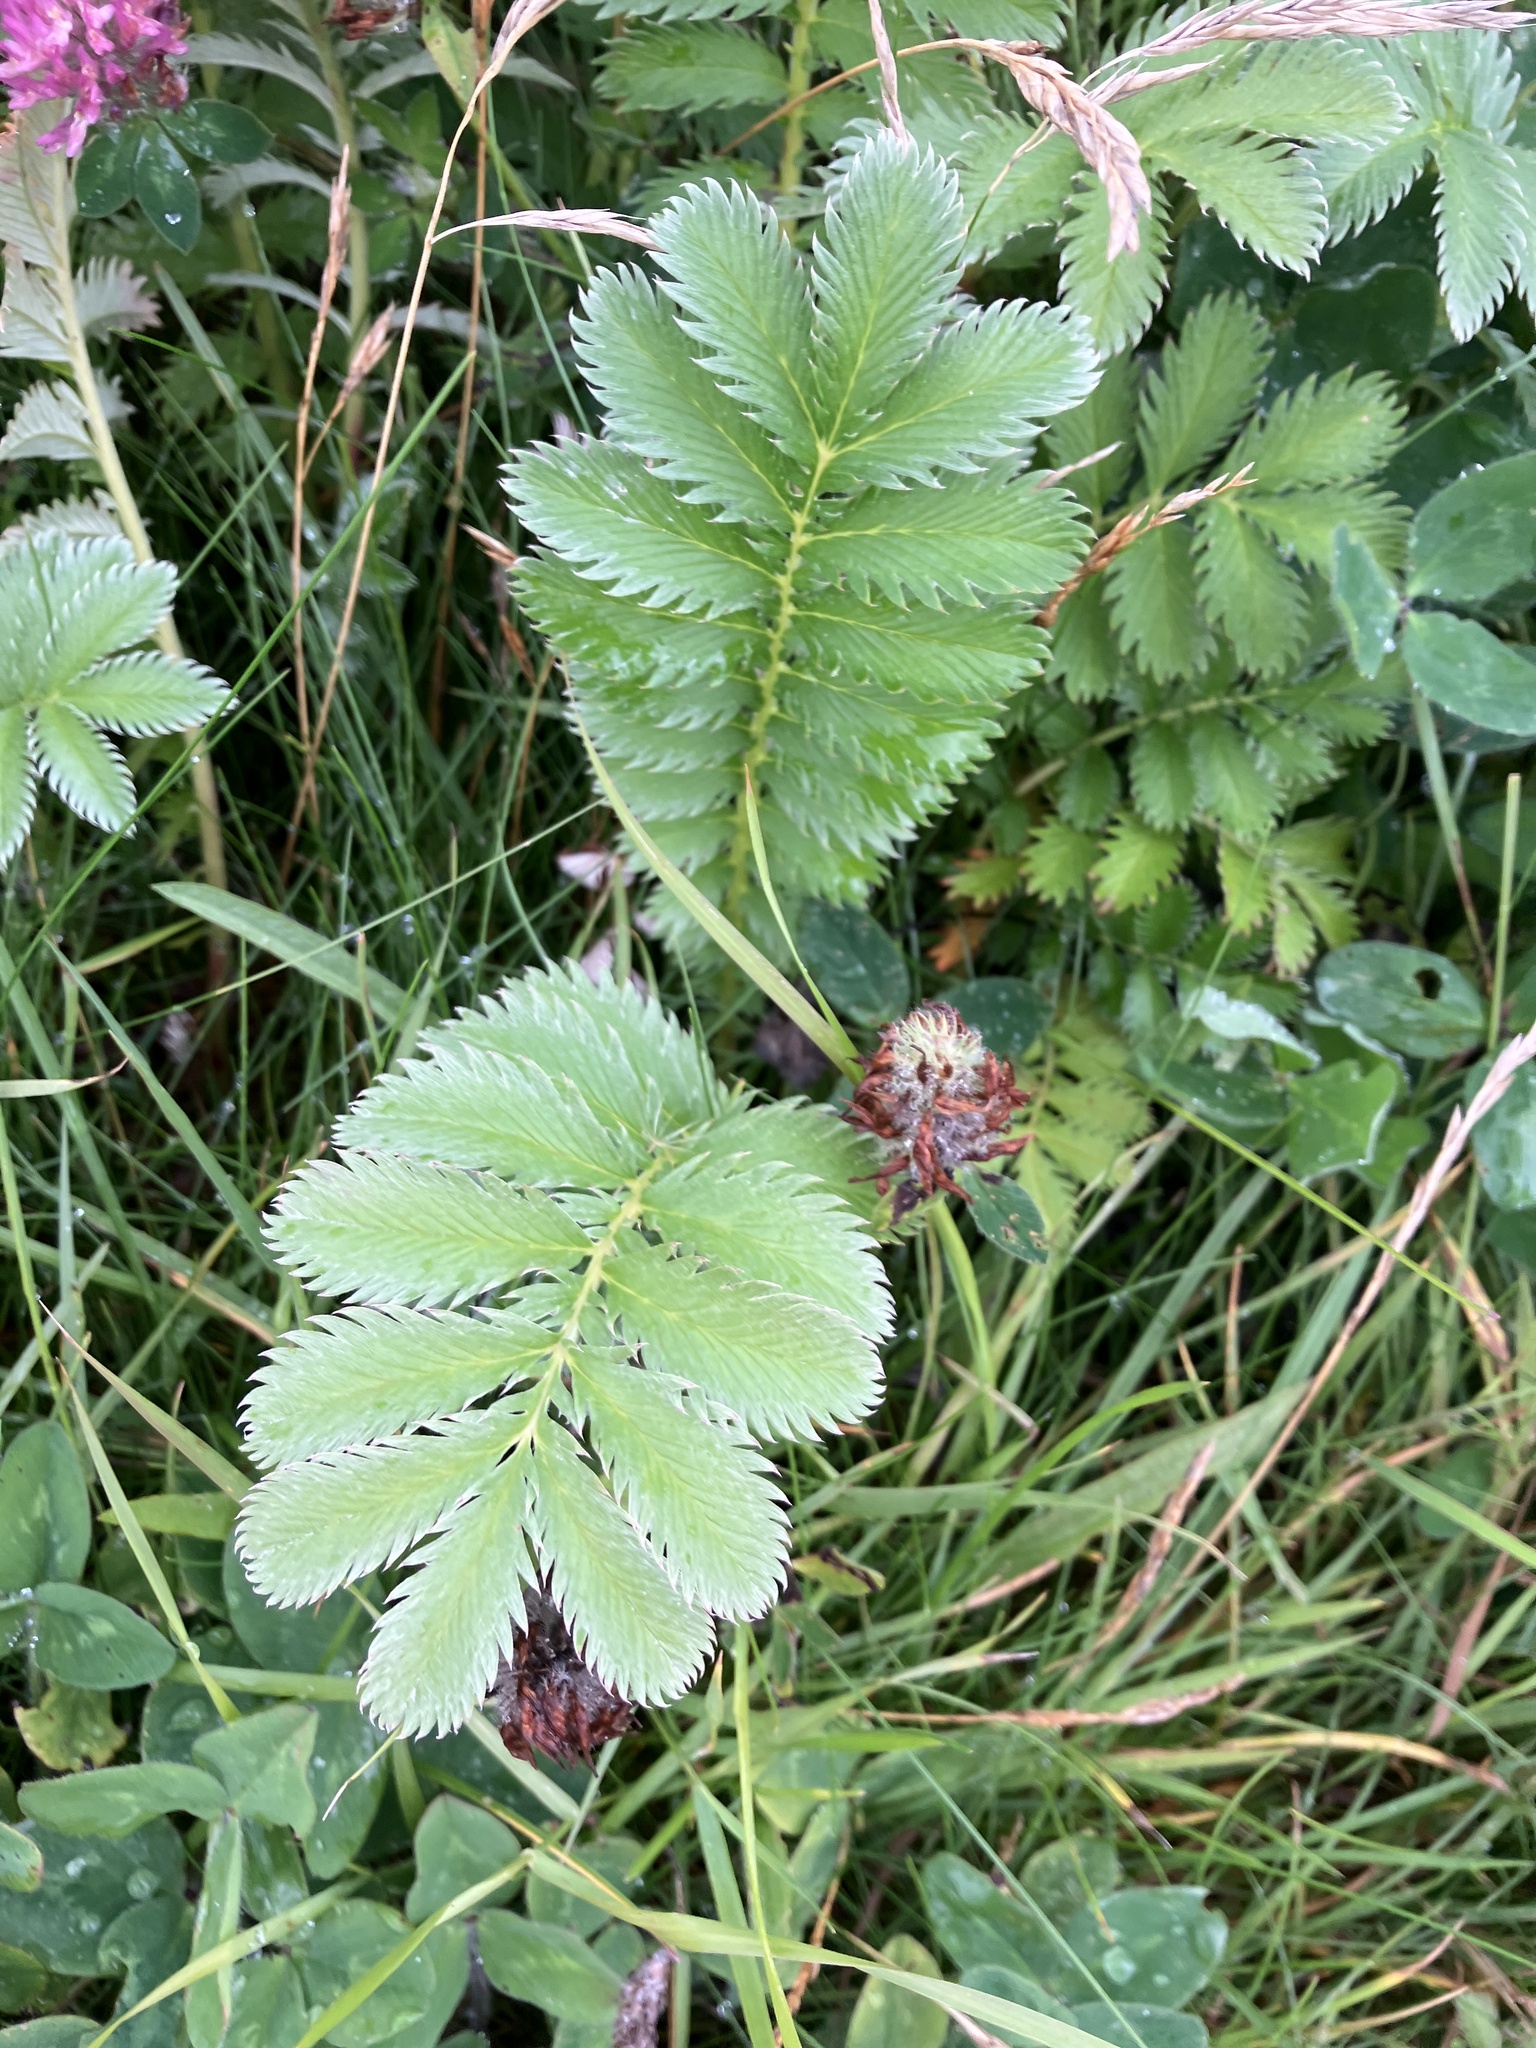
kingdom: Plantae
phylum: Tracheophyta
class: Magnoliopsida
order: Rosales
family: Rosaceae
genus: Argentina
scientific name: Argentina anserina
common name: Common silverweed
